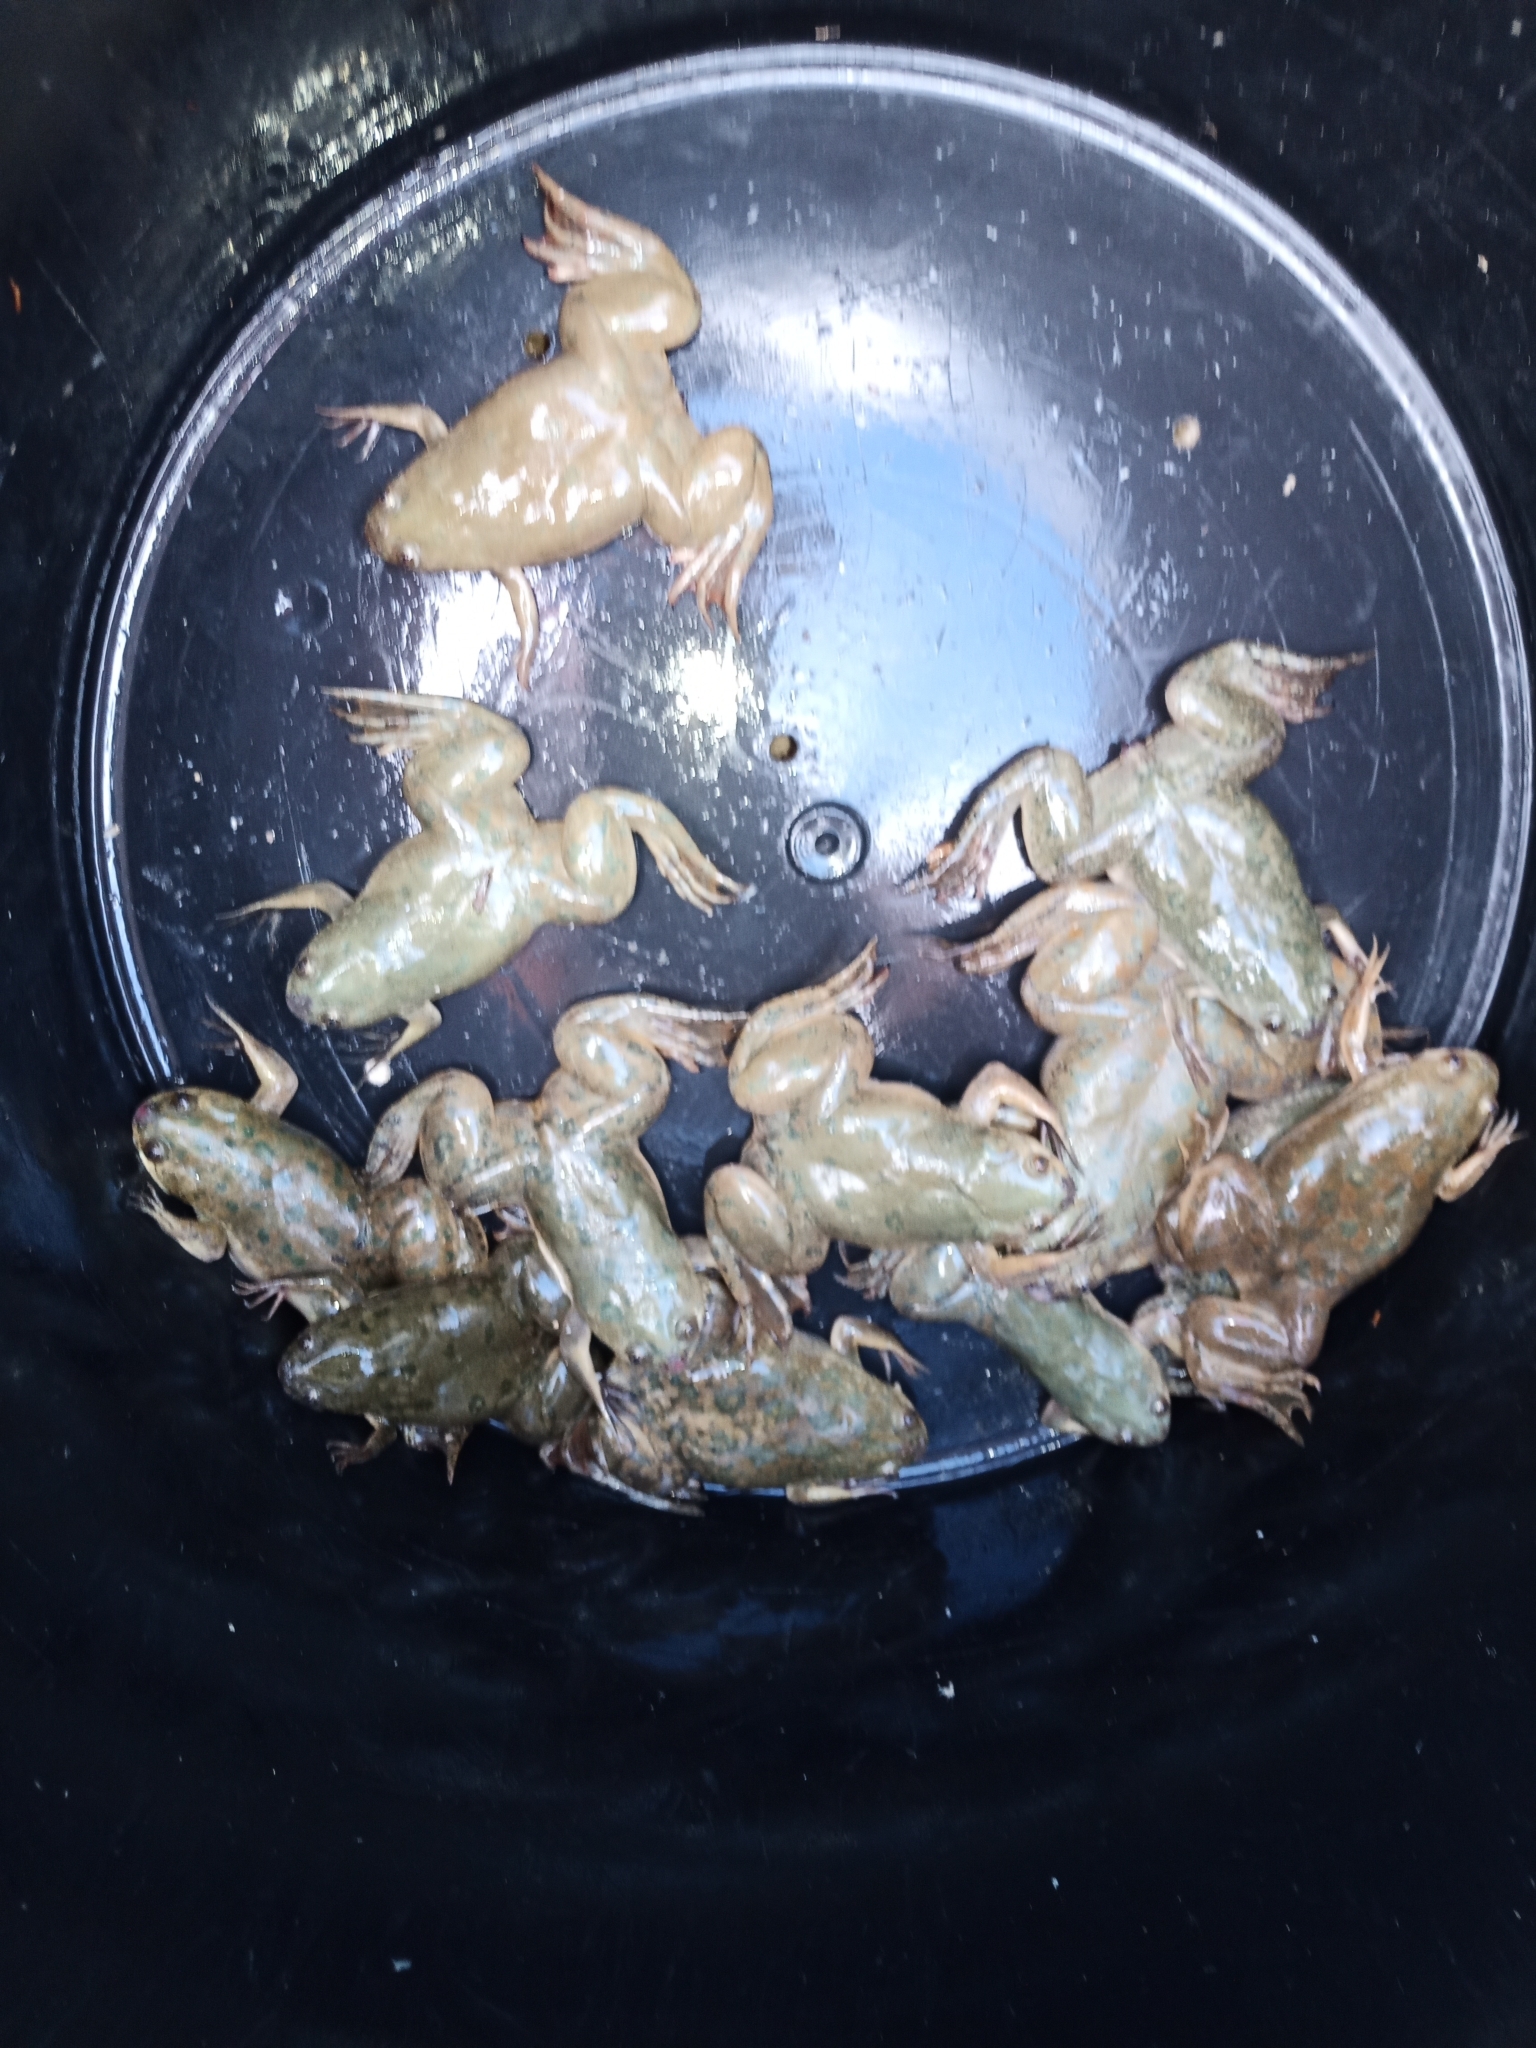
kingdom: Animalia
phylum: Chordata
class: Amphibia
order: Anura
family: Pipidae
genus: Xenopus
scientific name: Xenopus laevis
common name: African clawed frog
